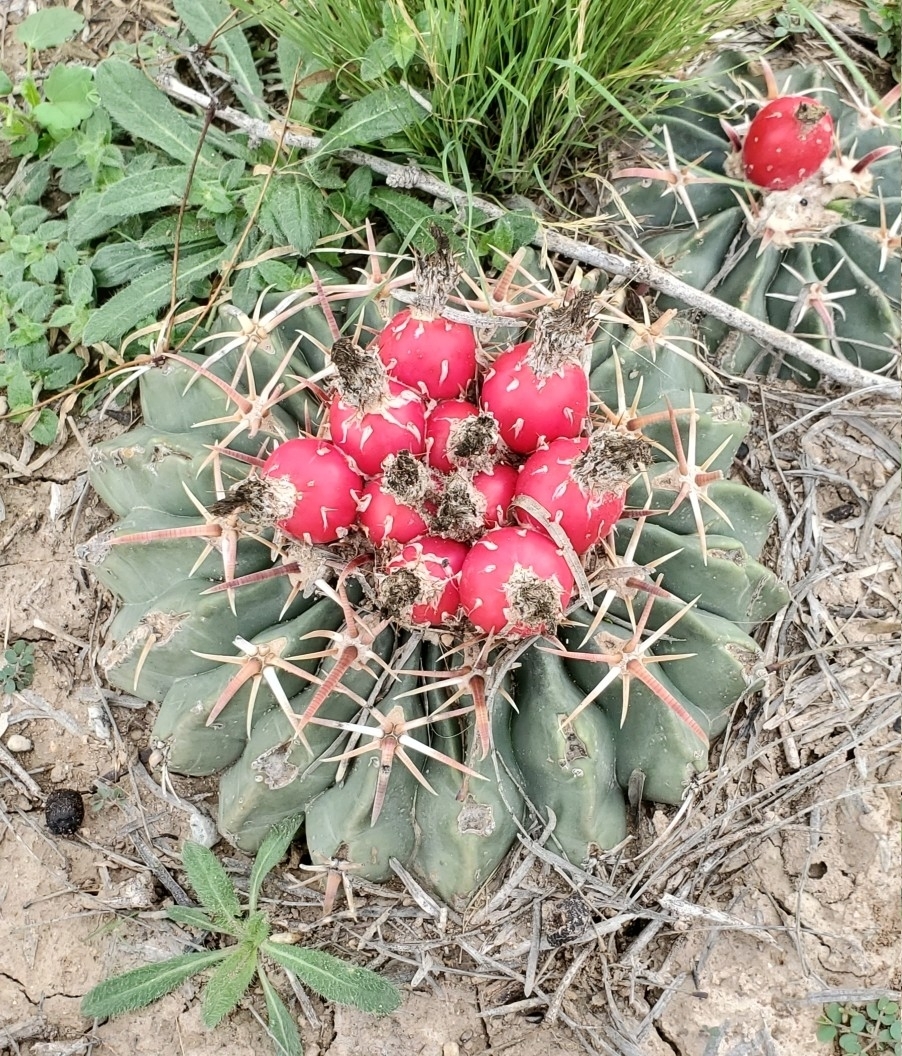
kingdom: Plantae
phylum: Tracheophyta
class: Magnoliopsida
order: Caryophyllales
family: Cactaceae
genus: Echinocactus
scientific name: Echinocactus texensis
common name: Devil's pincushion
